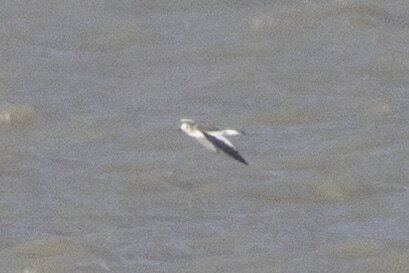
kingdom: Animalia
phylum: Chordata
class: Aves
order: Charadriiformes
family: Laridae
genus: Xema
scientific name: Xema sabini
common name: Sabine's gull
